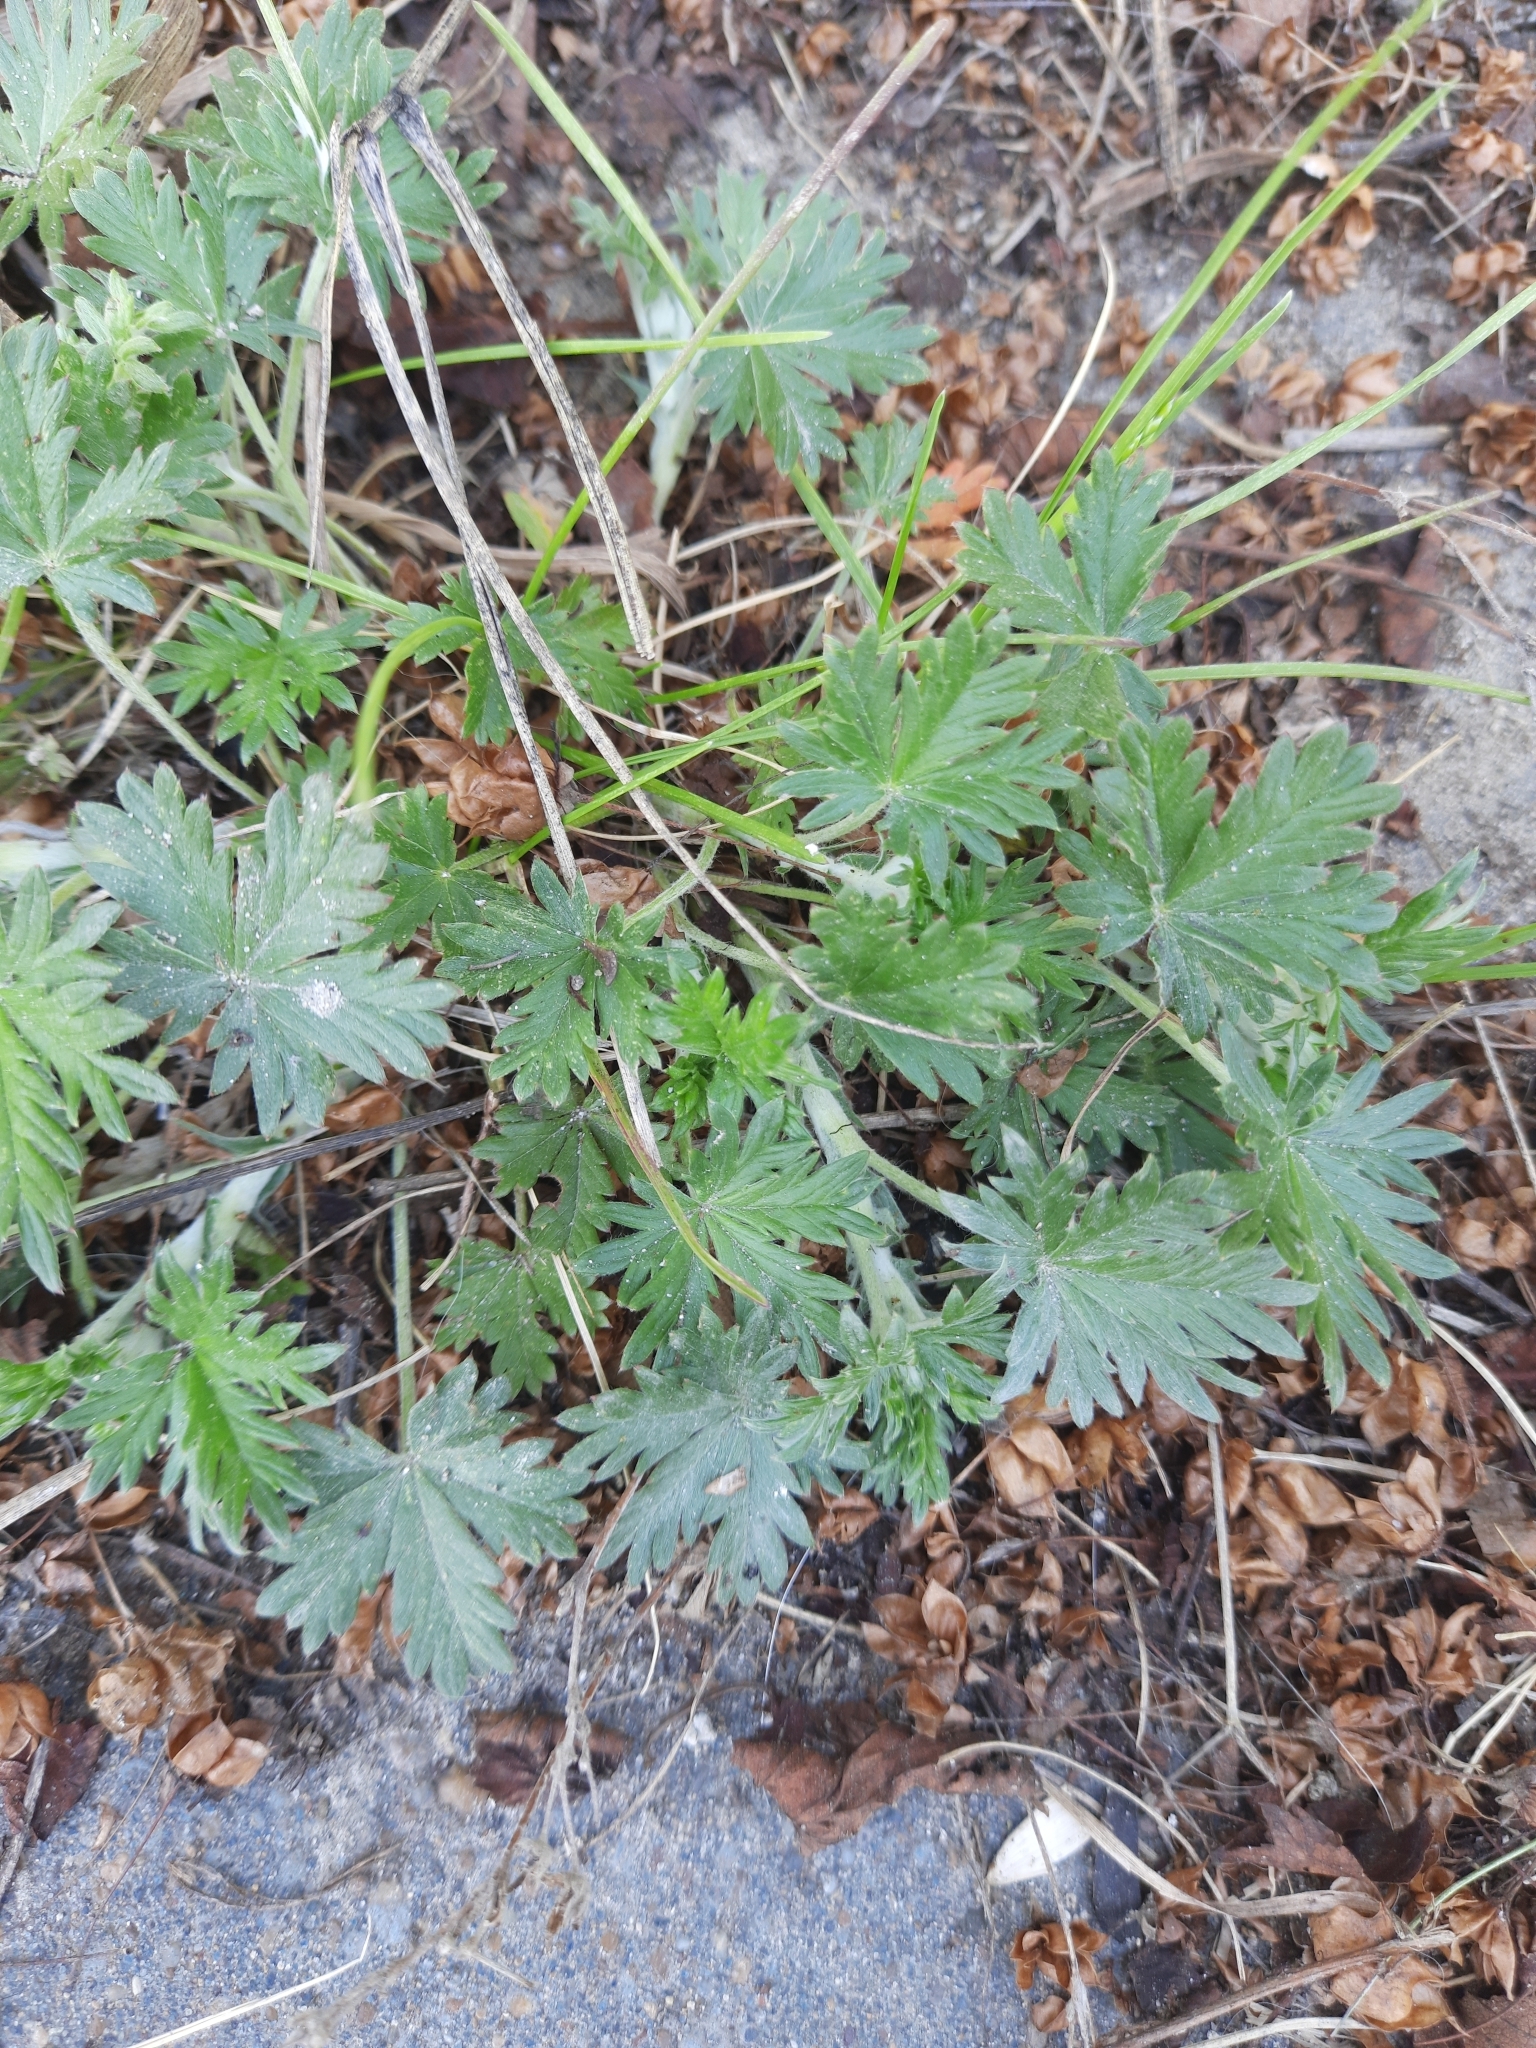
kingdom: Plantae
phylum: Tracheophyta
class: Magnoliopsida
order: Rosales
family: Rosaceae
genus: Potentilla
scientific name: Potentilla argentea
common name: Hoary cinquefoil
